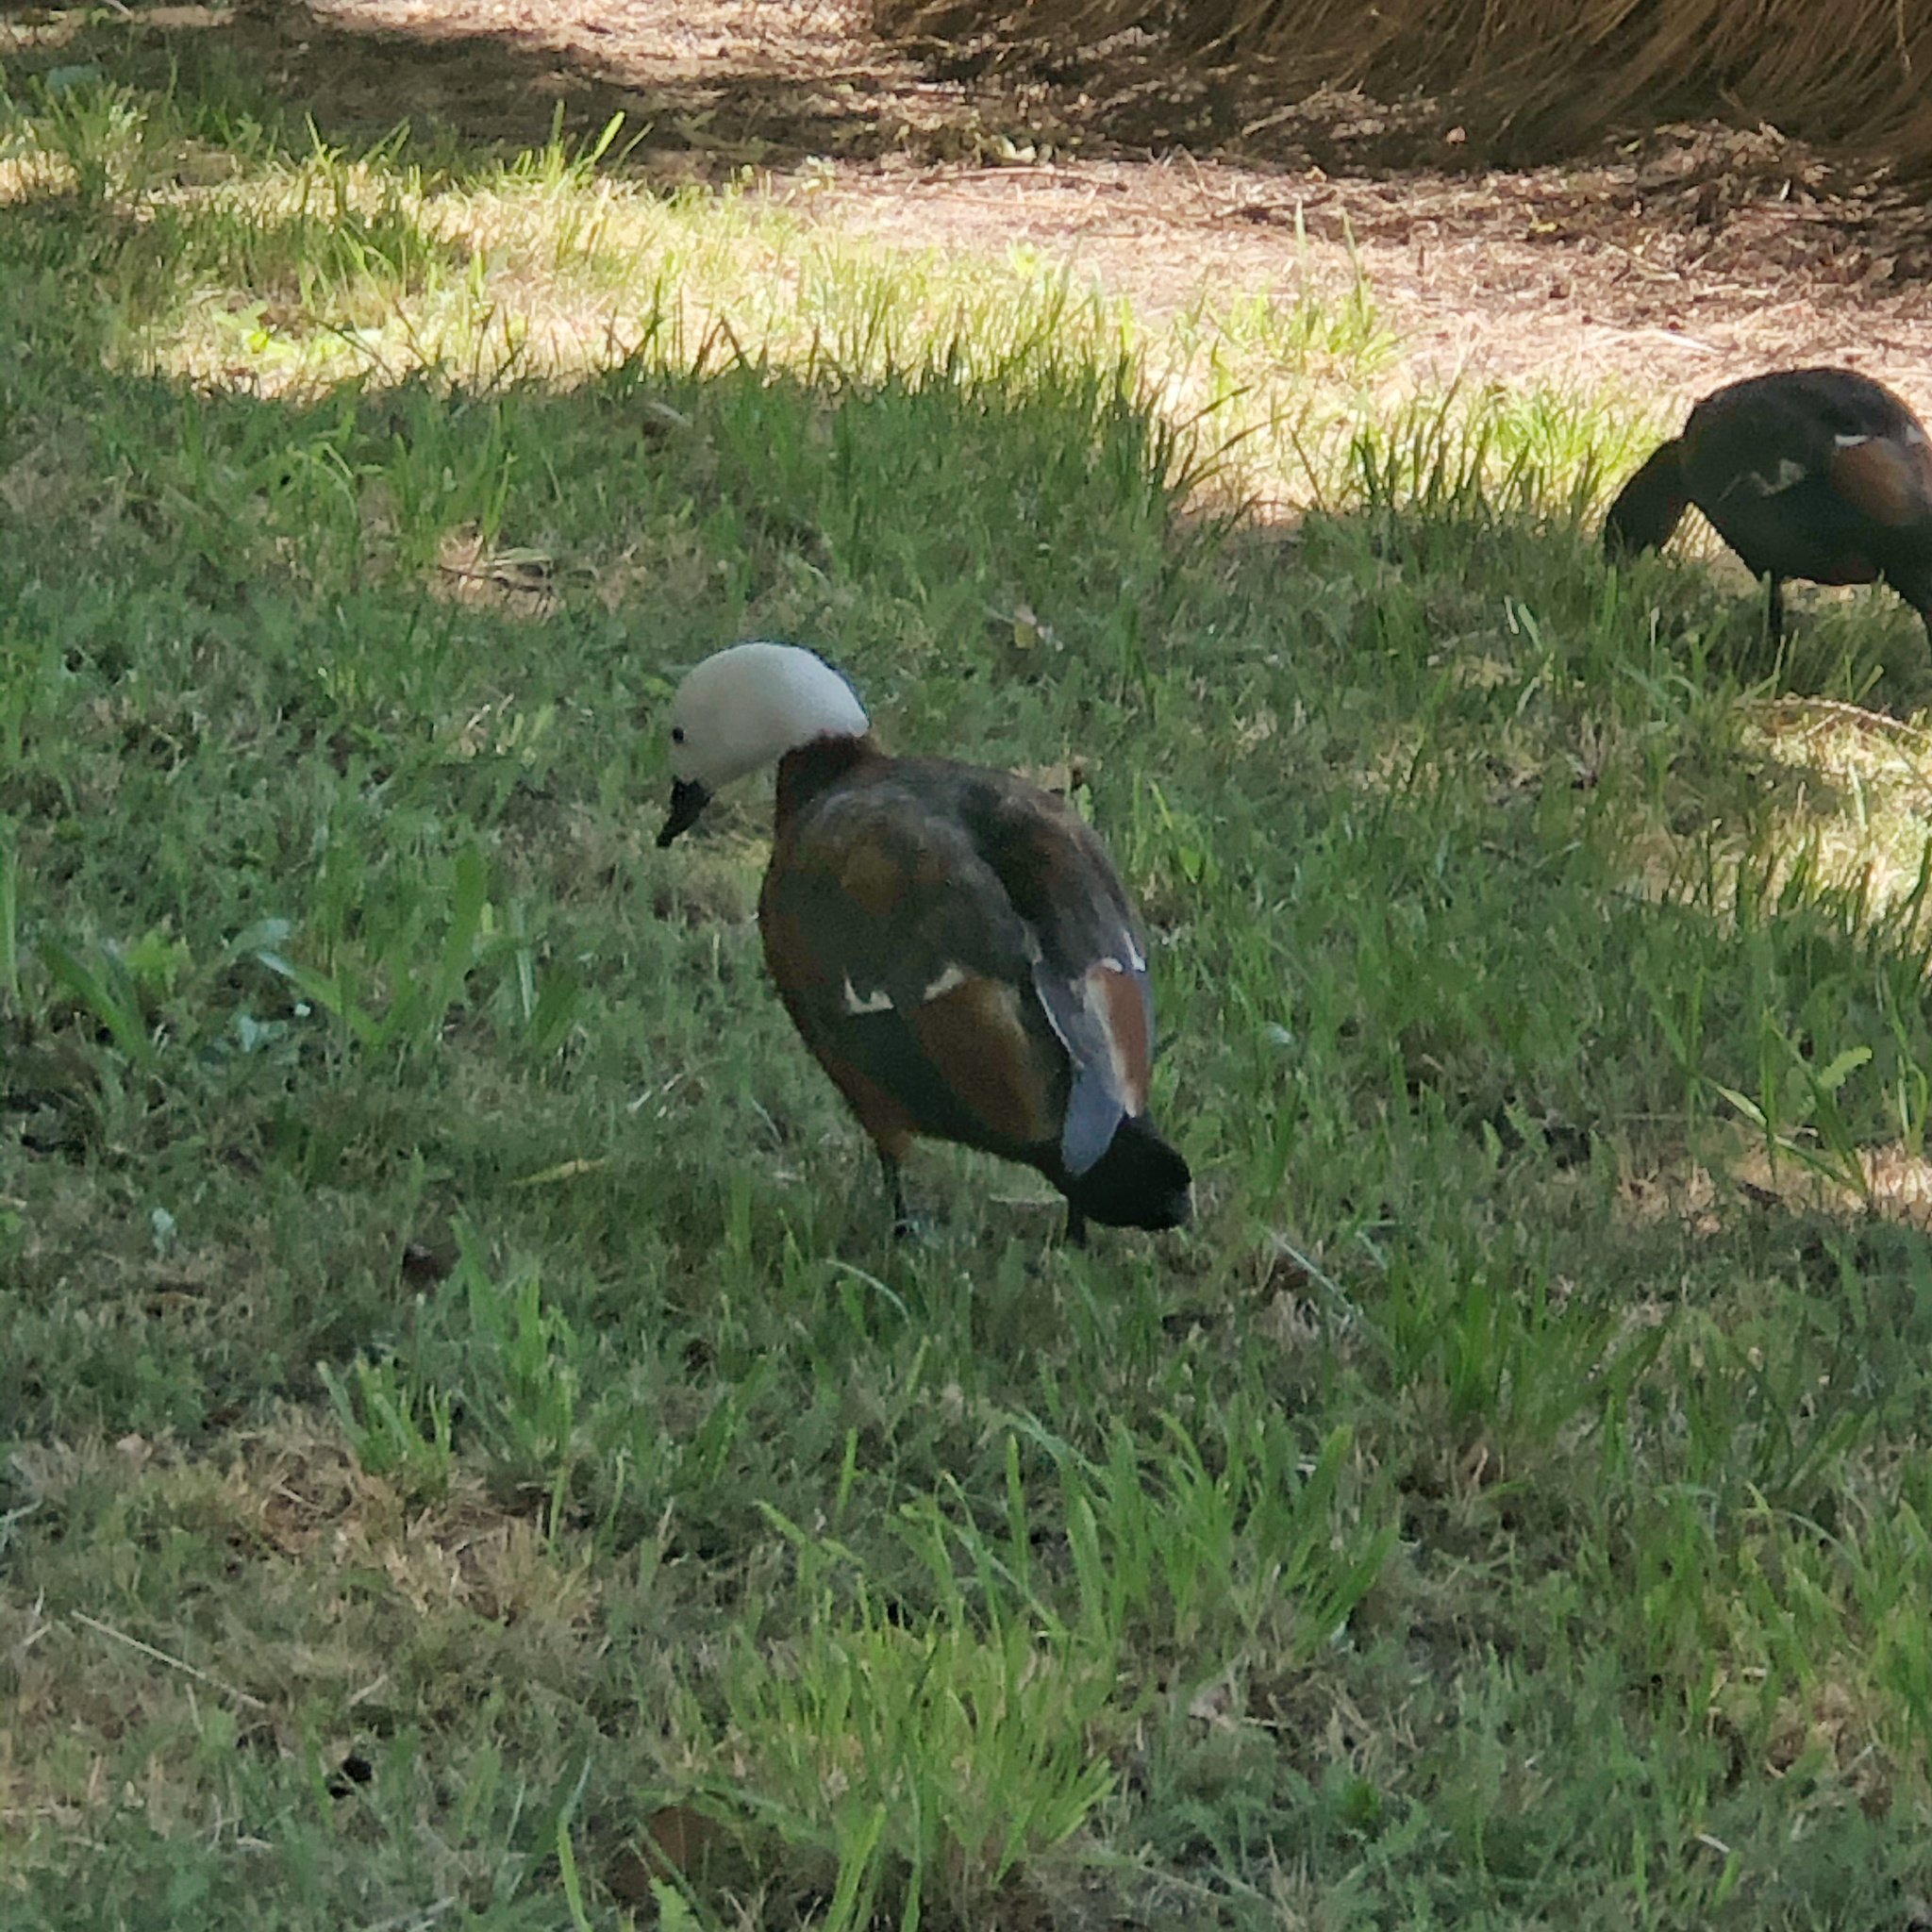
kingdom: Animalia
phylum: Chordata
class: Aves
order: Anseriformes
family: Anatidae
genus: Tadorna
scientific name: Tadorna variegata
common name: Paradise shelduck
